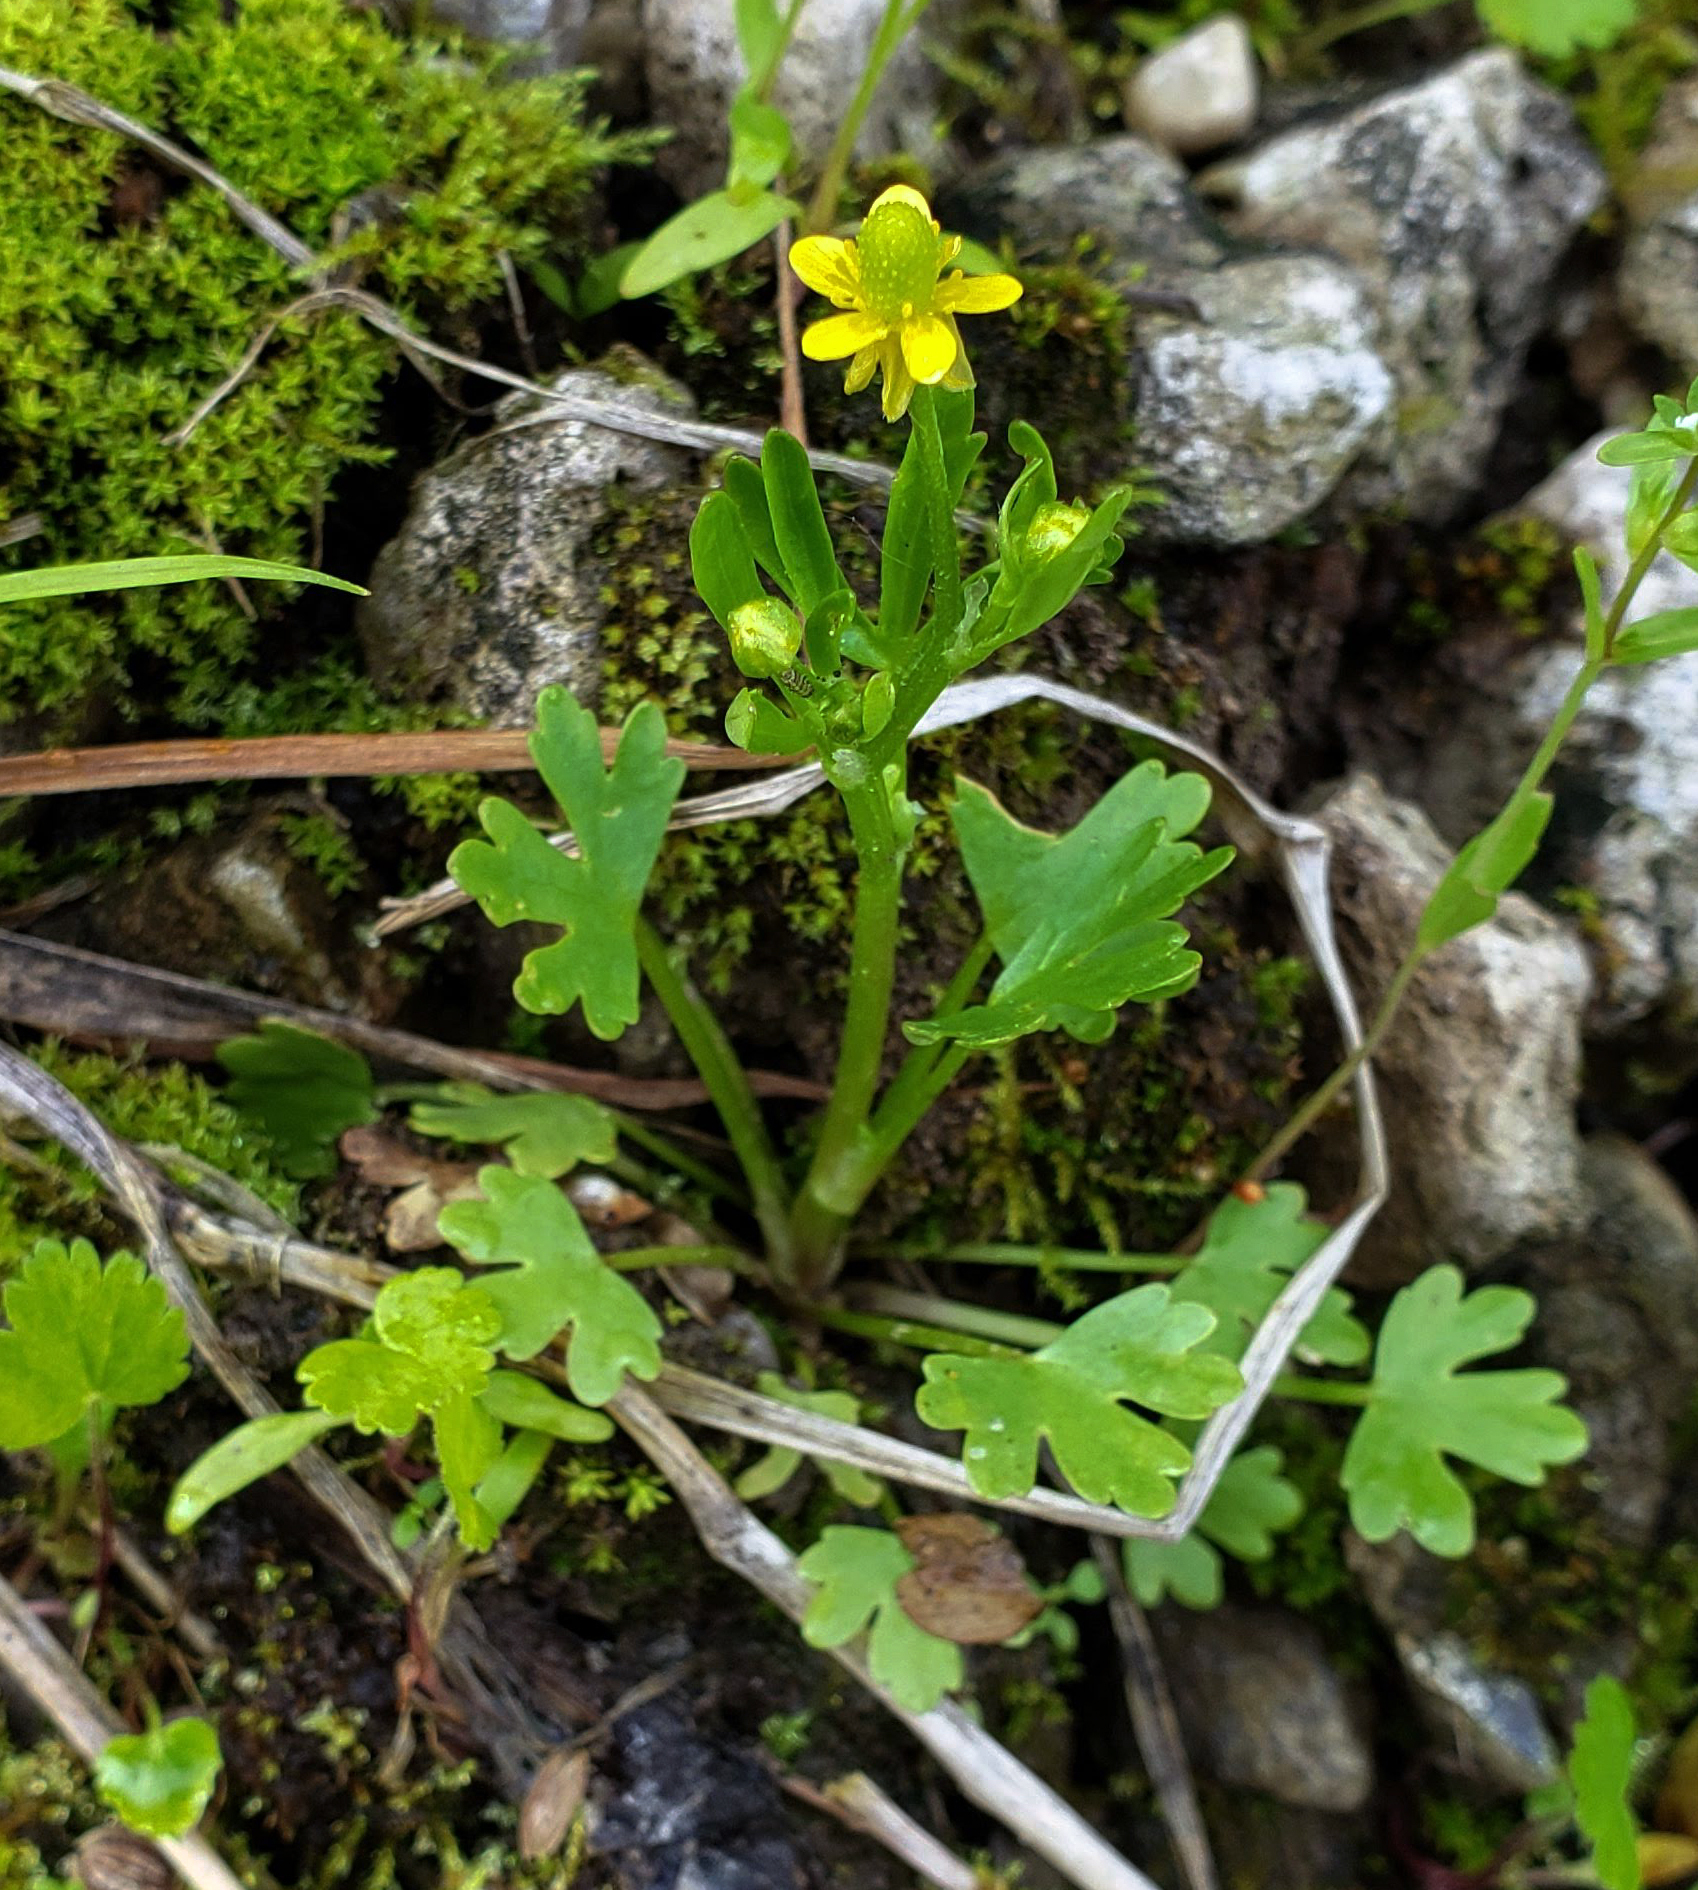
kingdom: Plantae
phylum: Tracheophyta
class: Magnoliopsida
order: Ranunculales
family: Ranunculaceae
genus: Ranunculus
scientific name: Ranunculus sceleratus
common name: Celery-leaved buttercup
